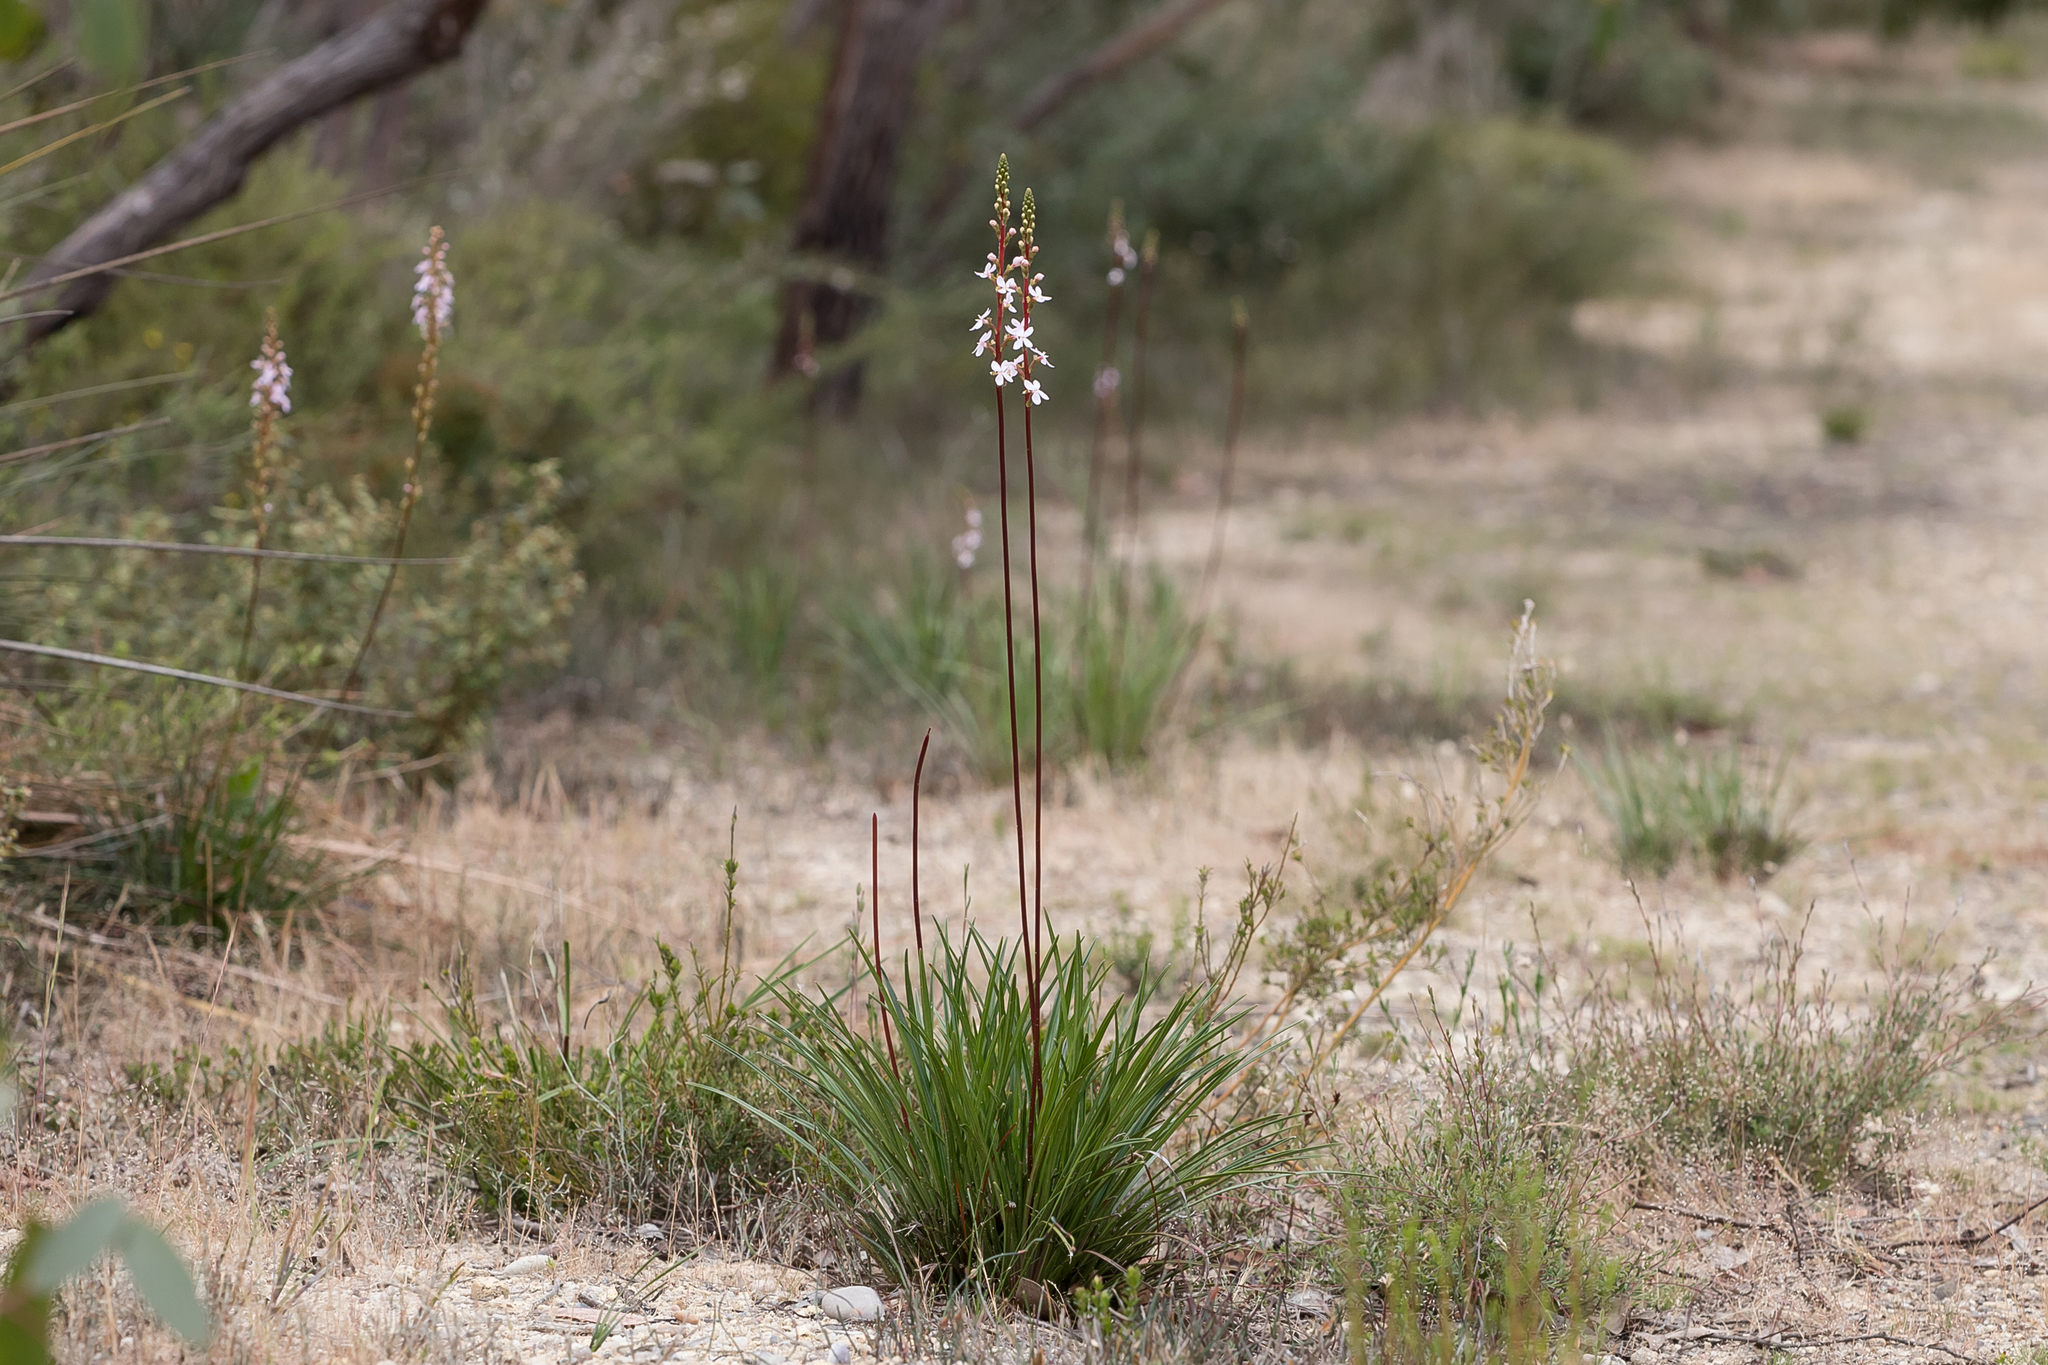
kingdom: Plantae
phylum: Tracheophyta
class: Magnoliopsida
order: Asterales
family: Stylidiaceae
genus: Stylidium
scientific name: Stylidium armeria
